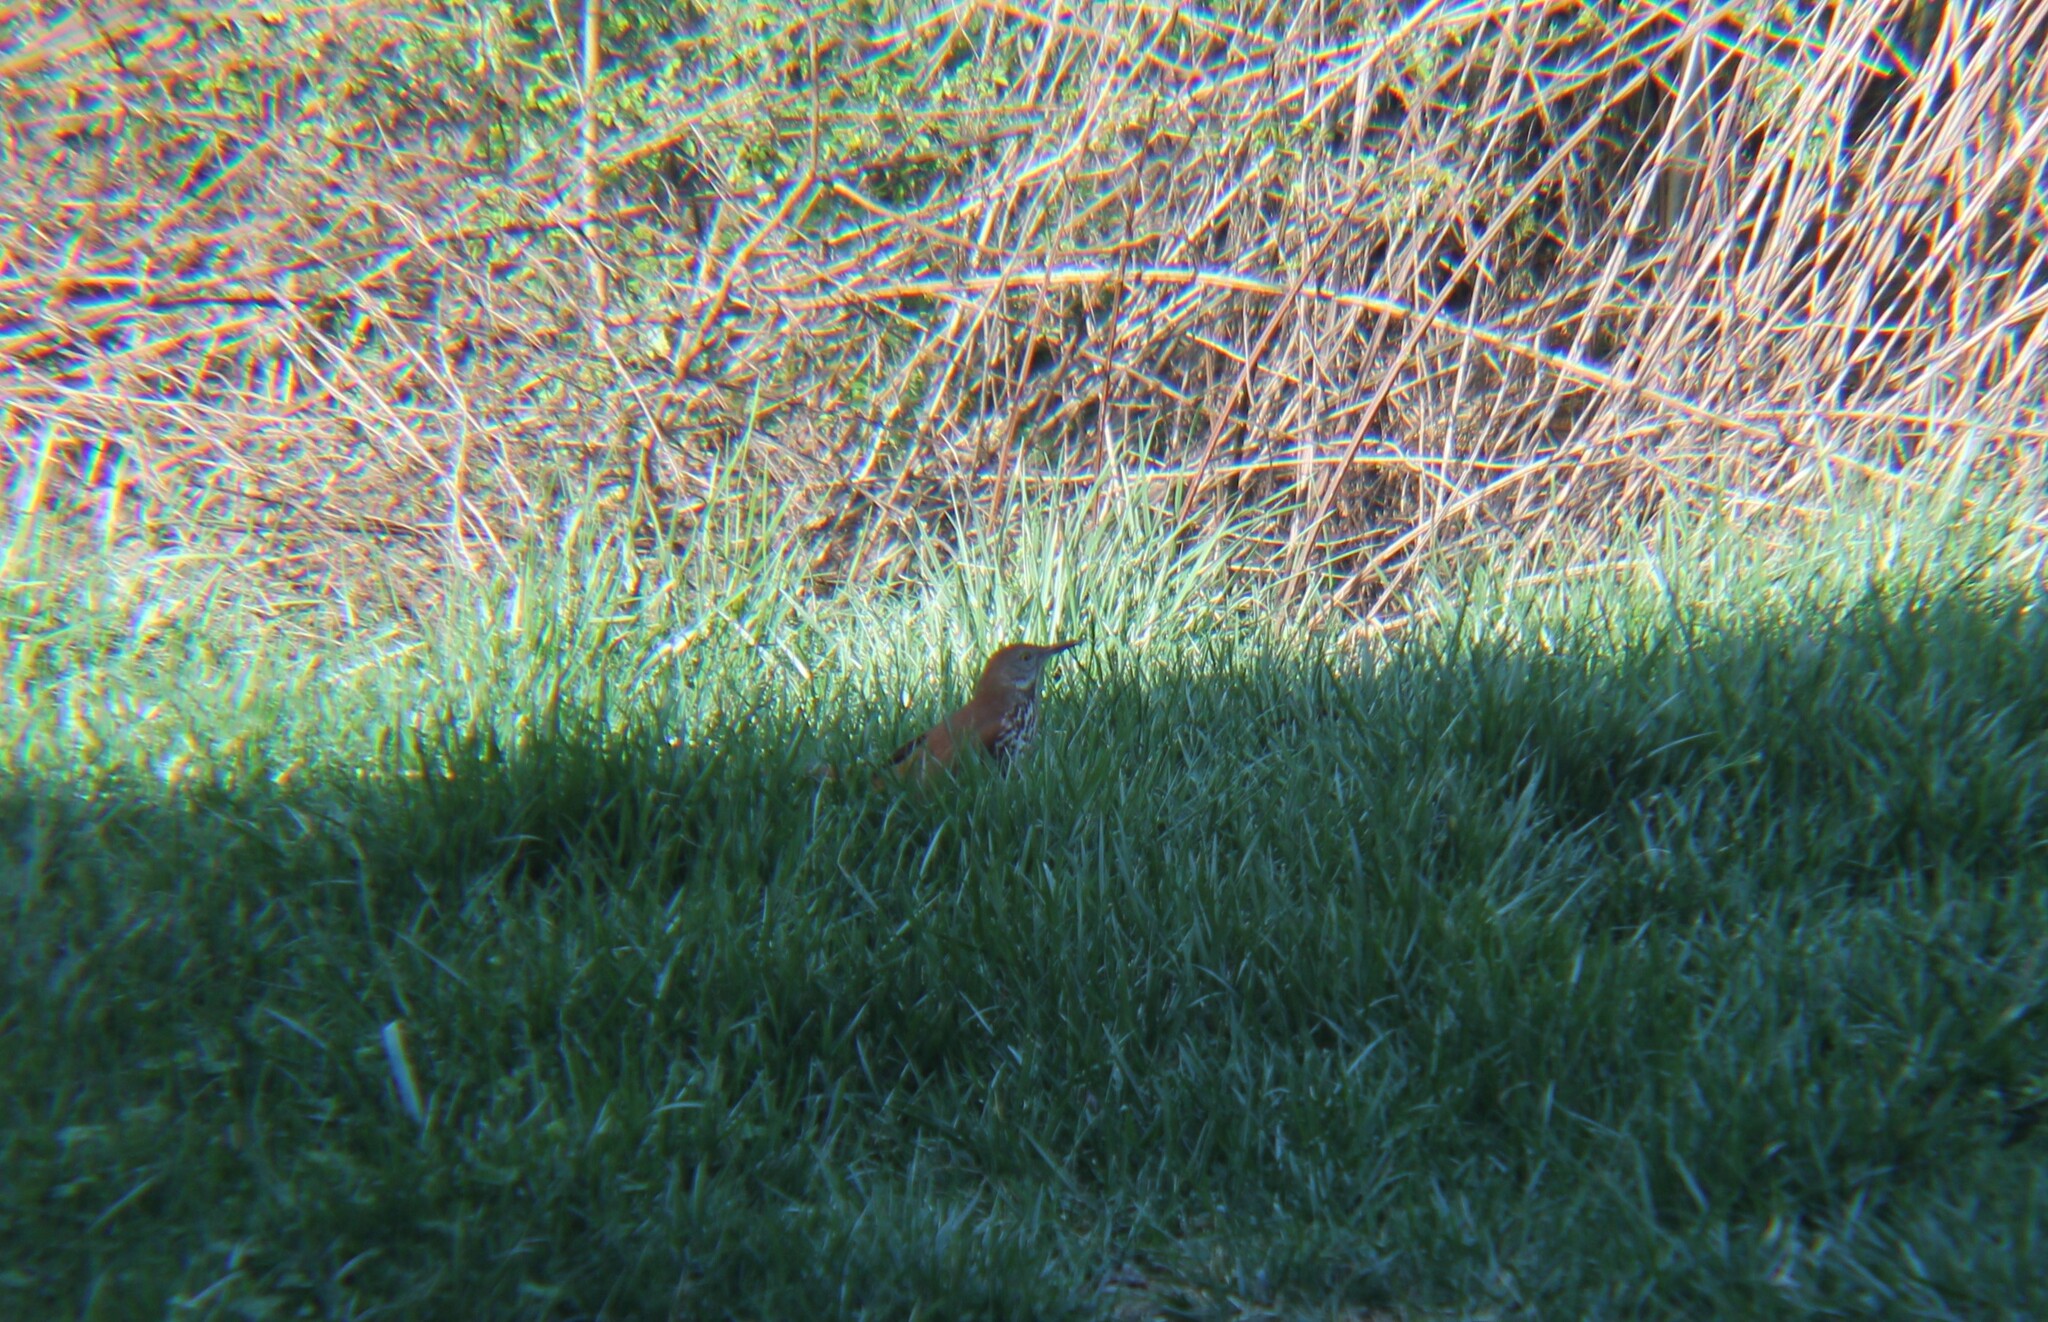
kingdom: Animalia
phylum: Chordata
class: Aves
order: Passeriformes
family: Mimidae
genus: Toxostoma
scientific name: Toxostoma rufum
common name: Brown thrasher
